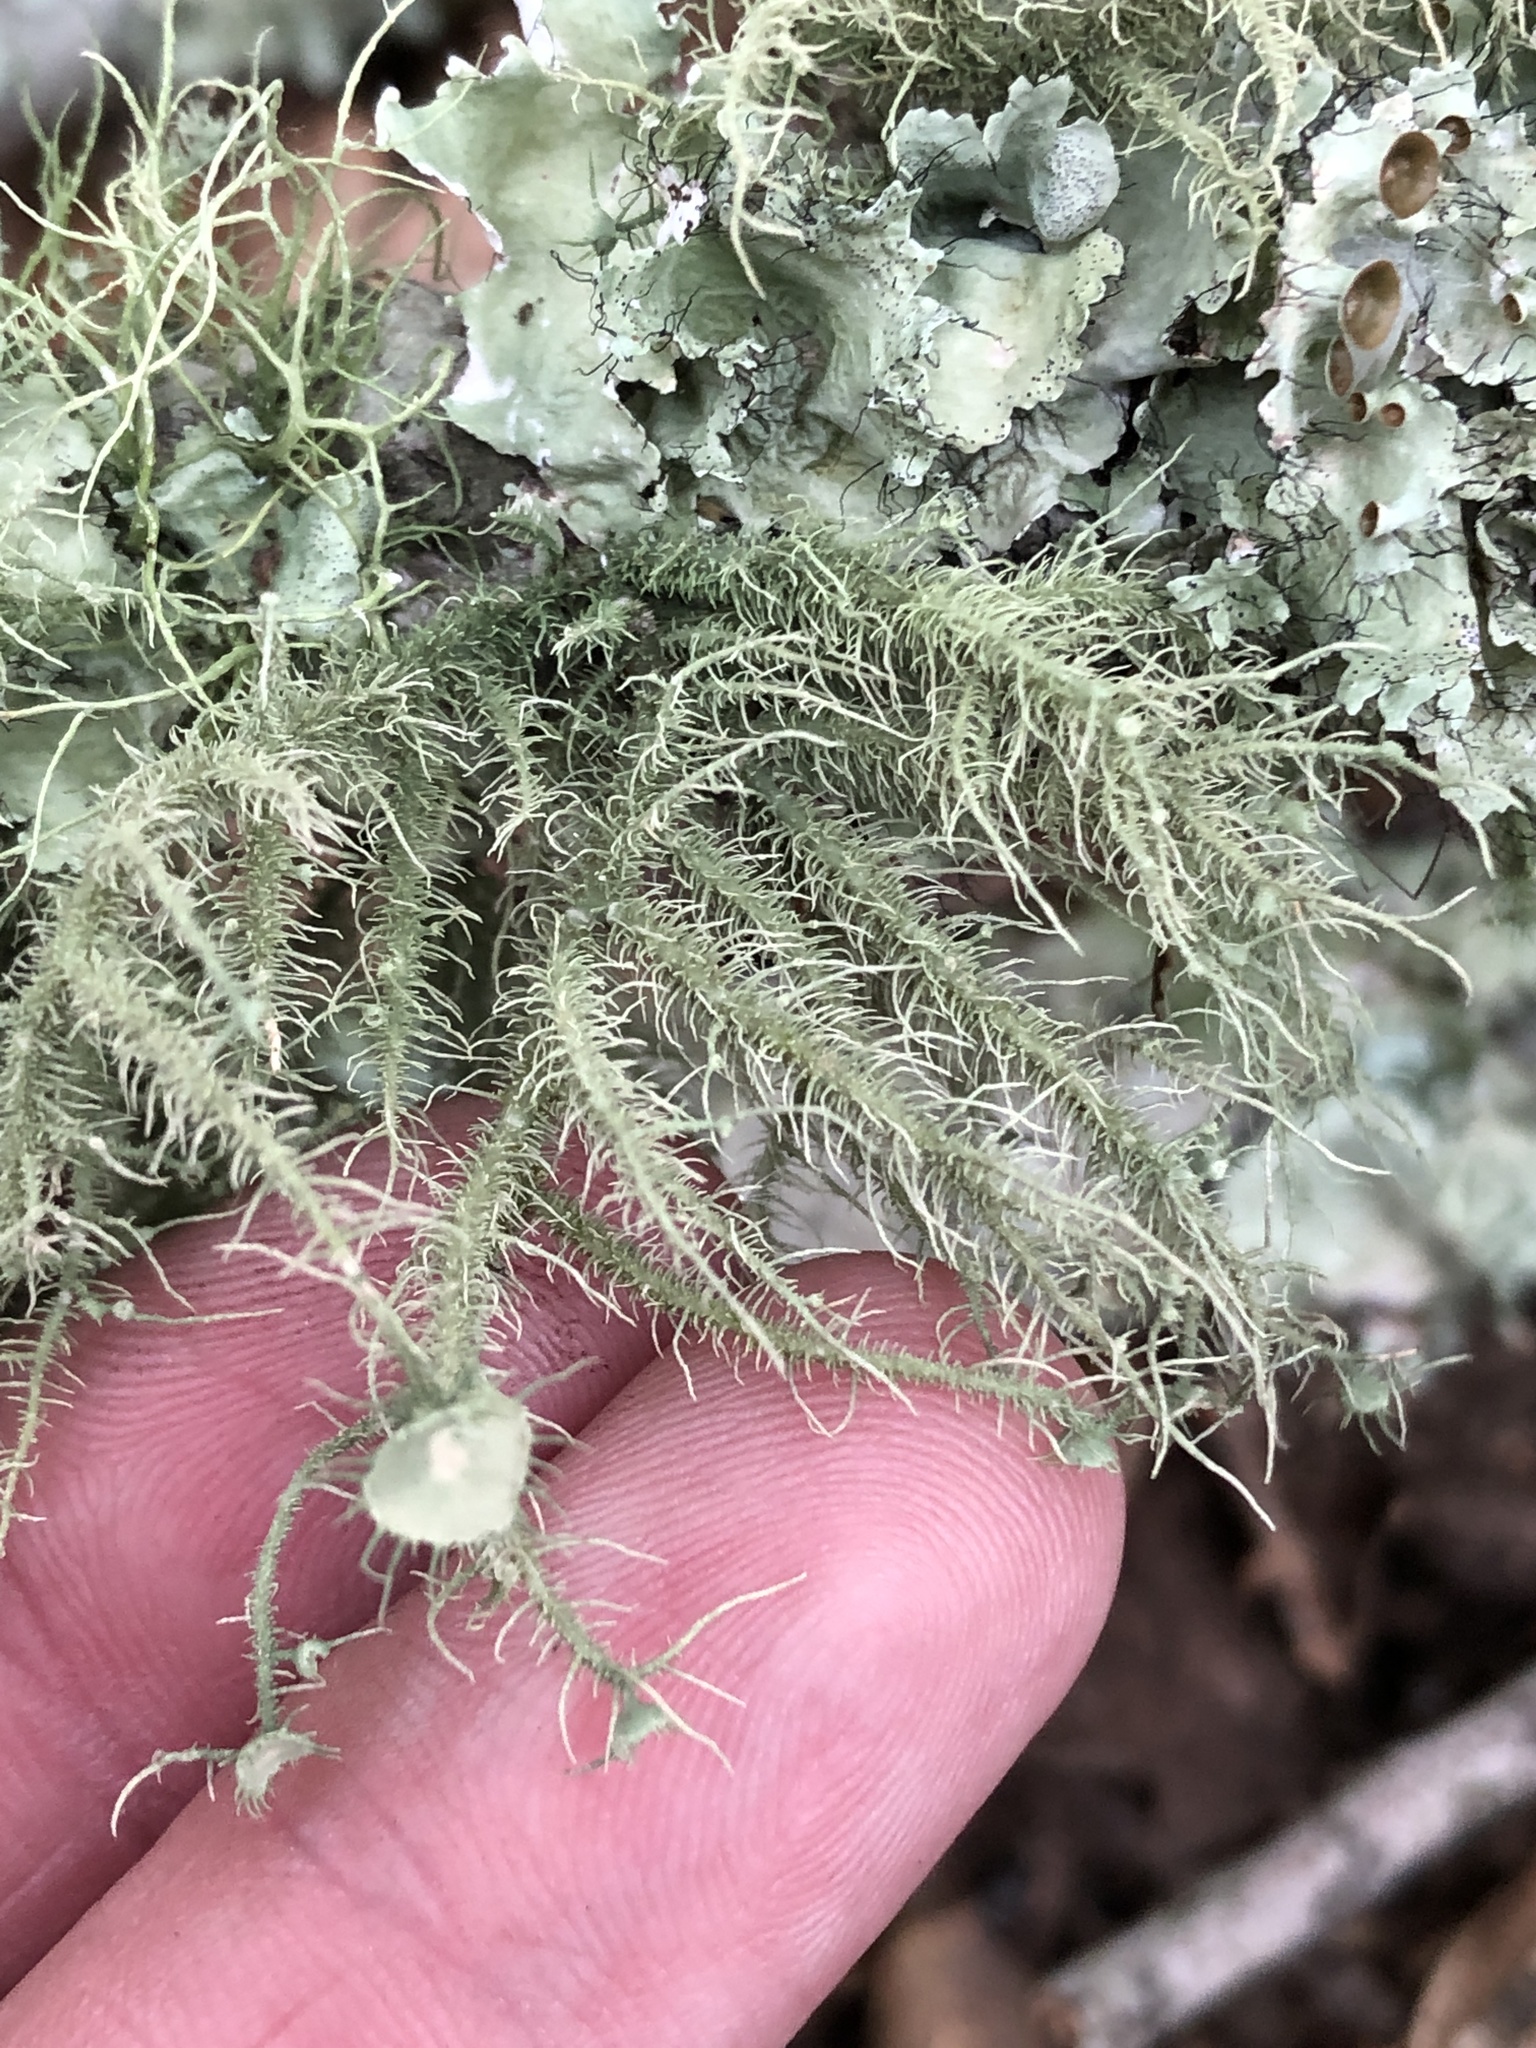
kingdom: Fungi
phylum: Ascomycota
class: Lecanoromycetes
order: Lecanorales
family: Parmeliaceae
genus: Usnea
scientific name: Usnea strigosa
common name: Bushy beard lichen
